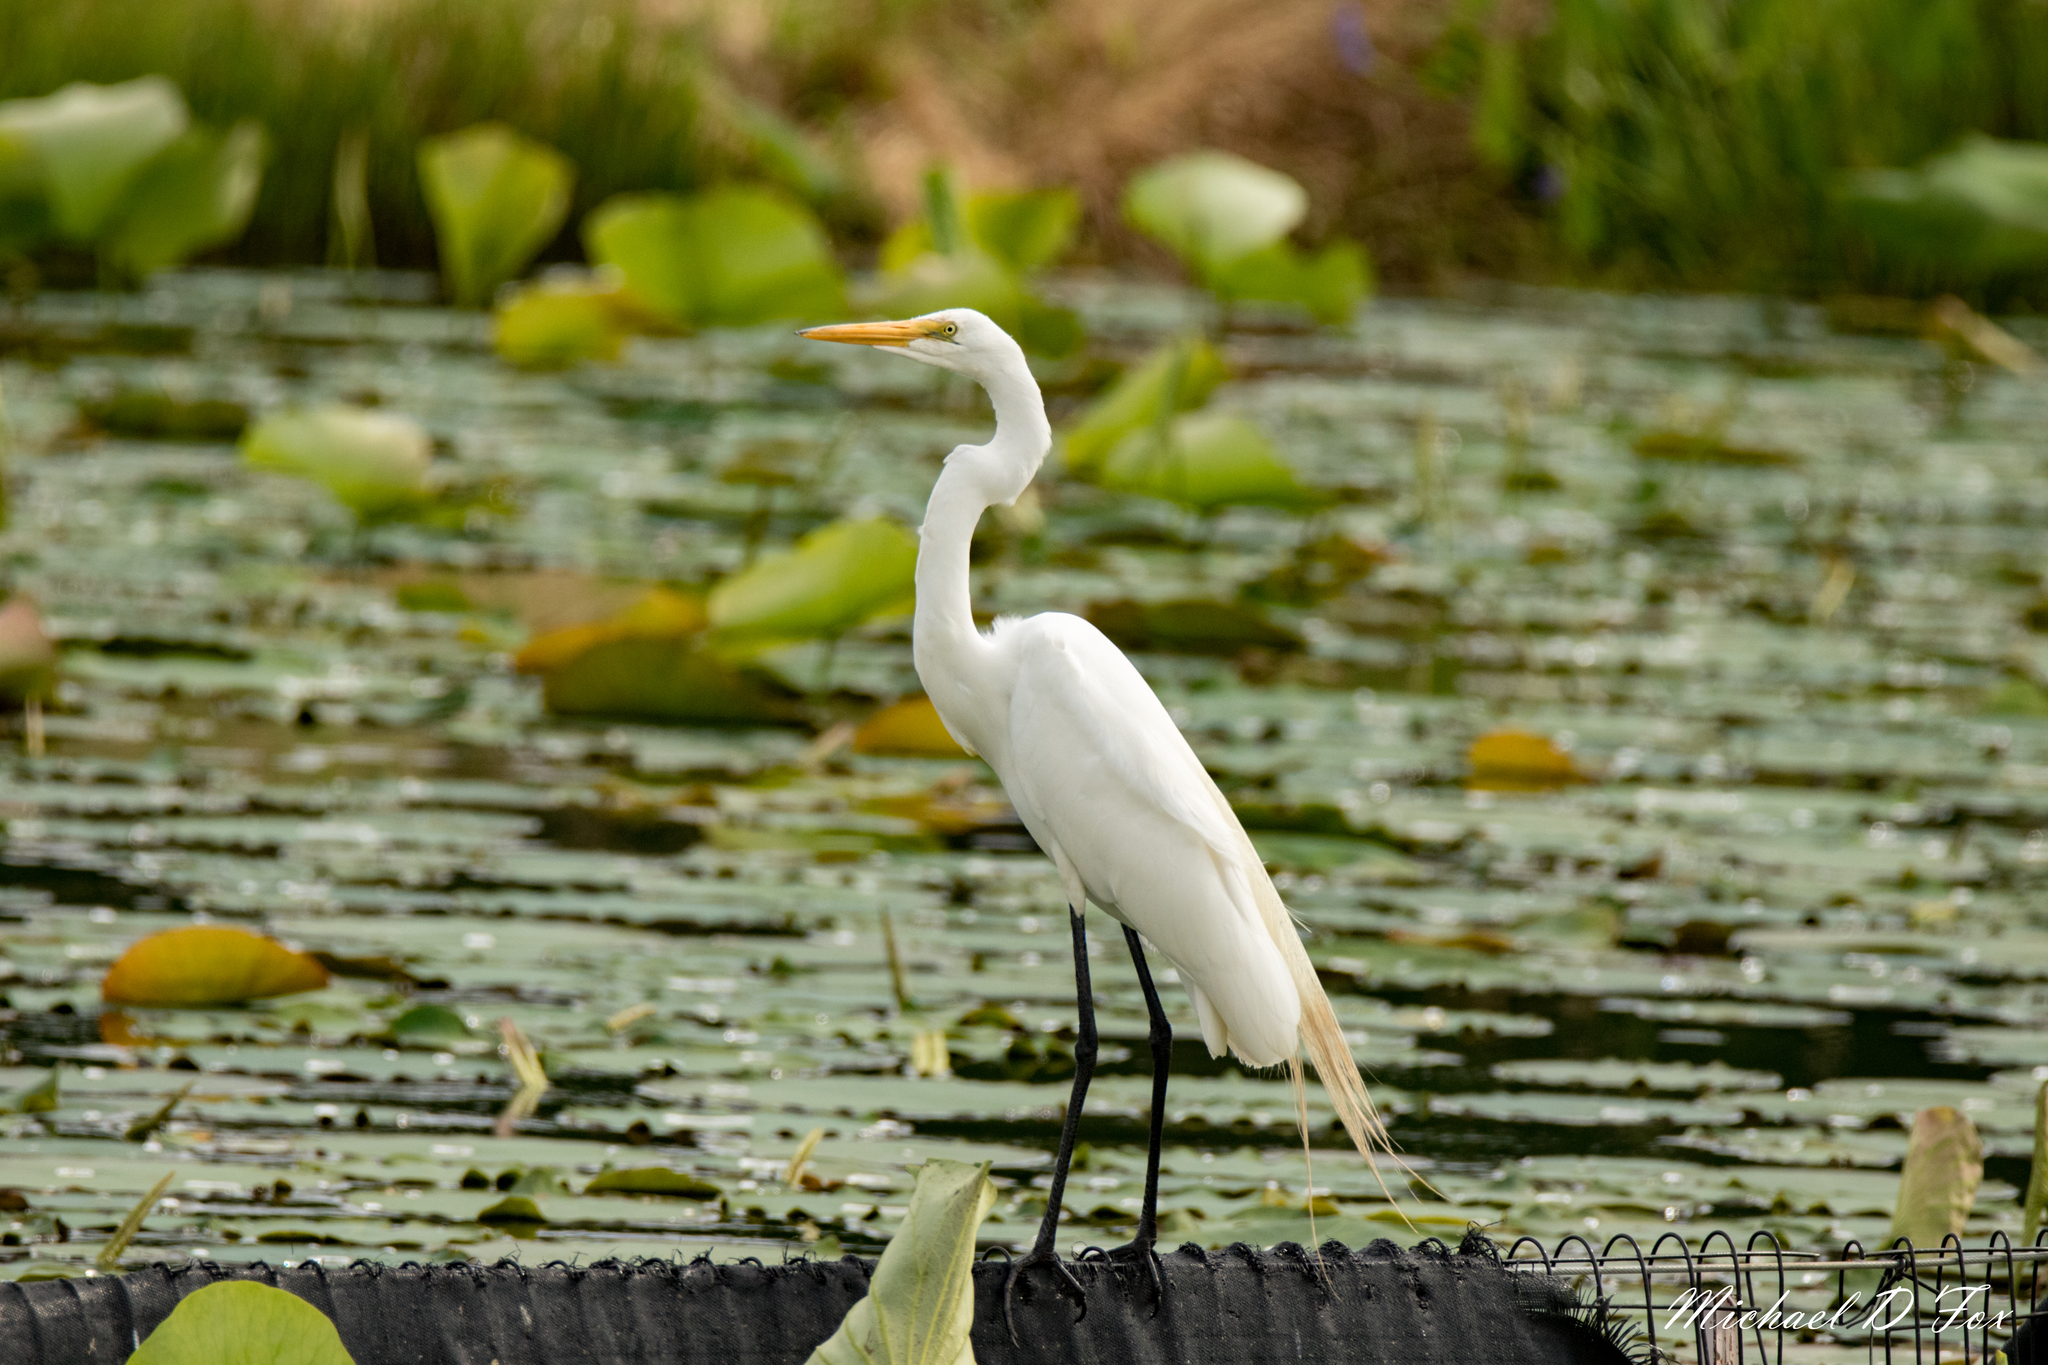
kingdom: Animalia
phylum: Chordata
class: Aves
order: Pelecaniformes
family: Ardeidae
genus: Ardea
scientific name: Ardea alba
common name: Great egret
